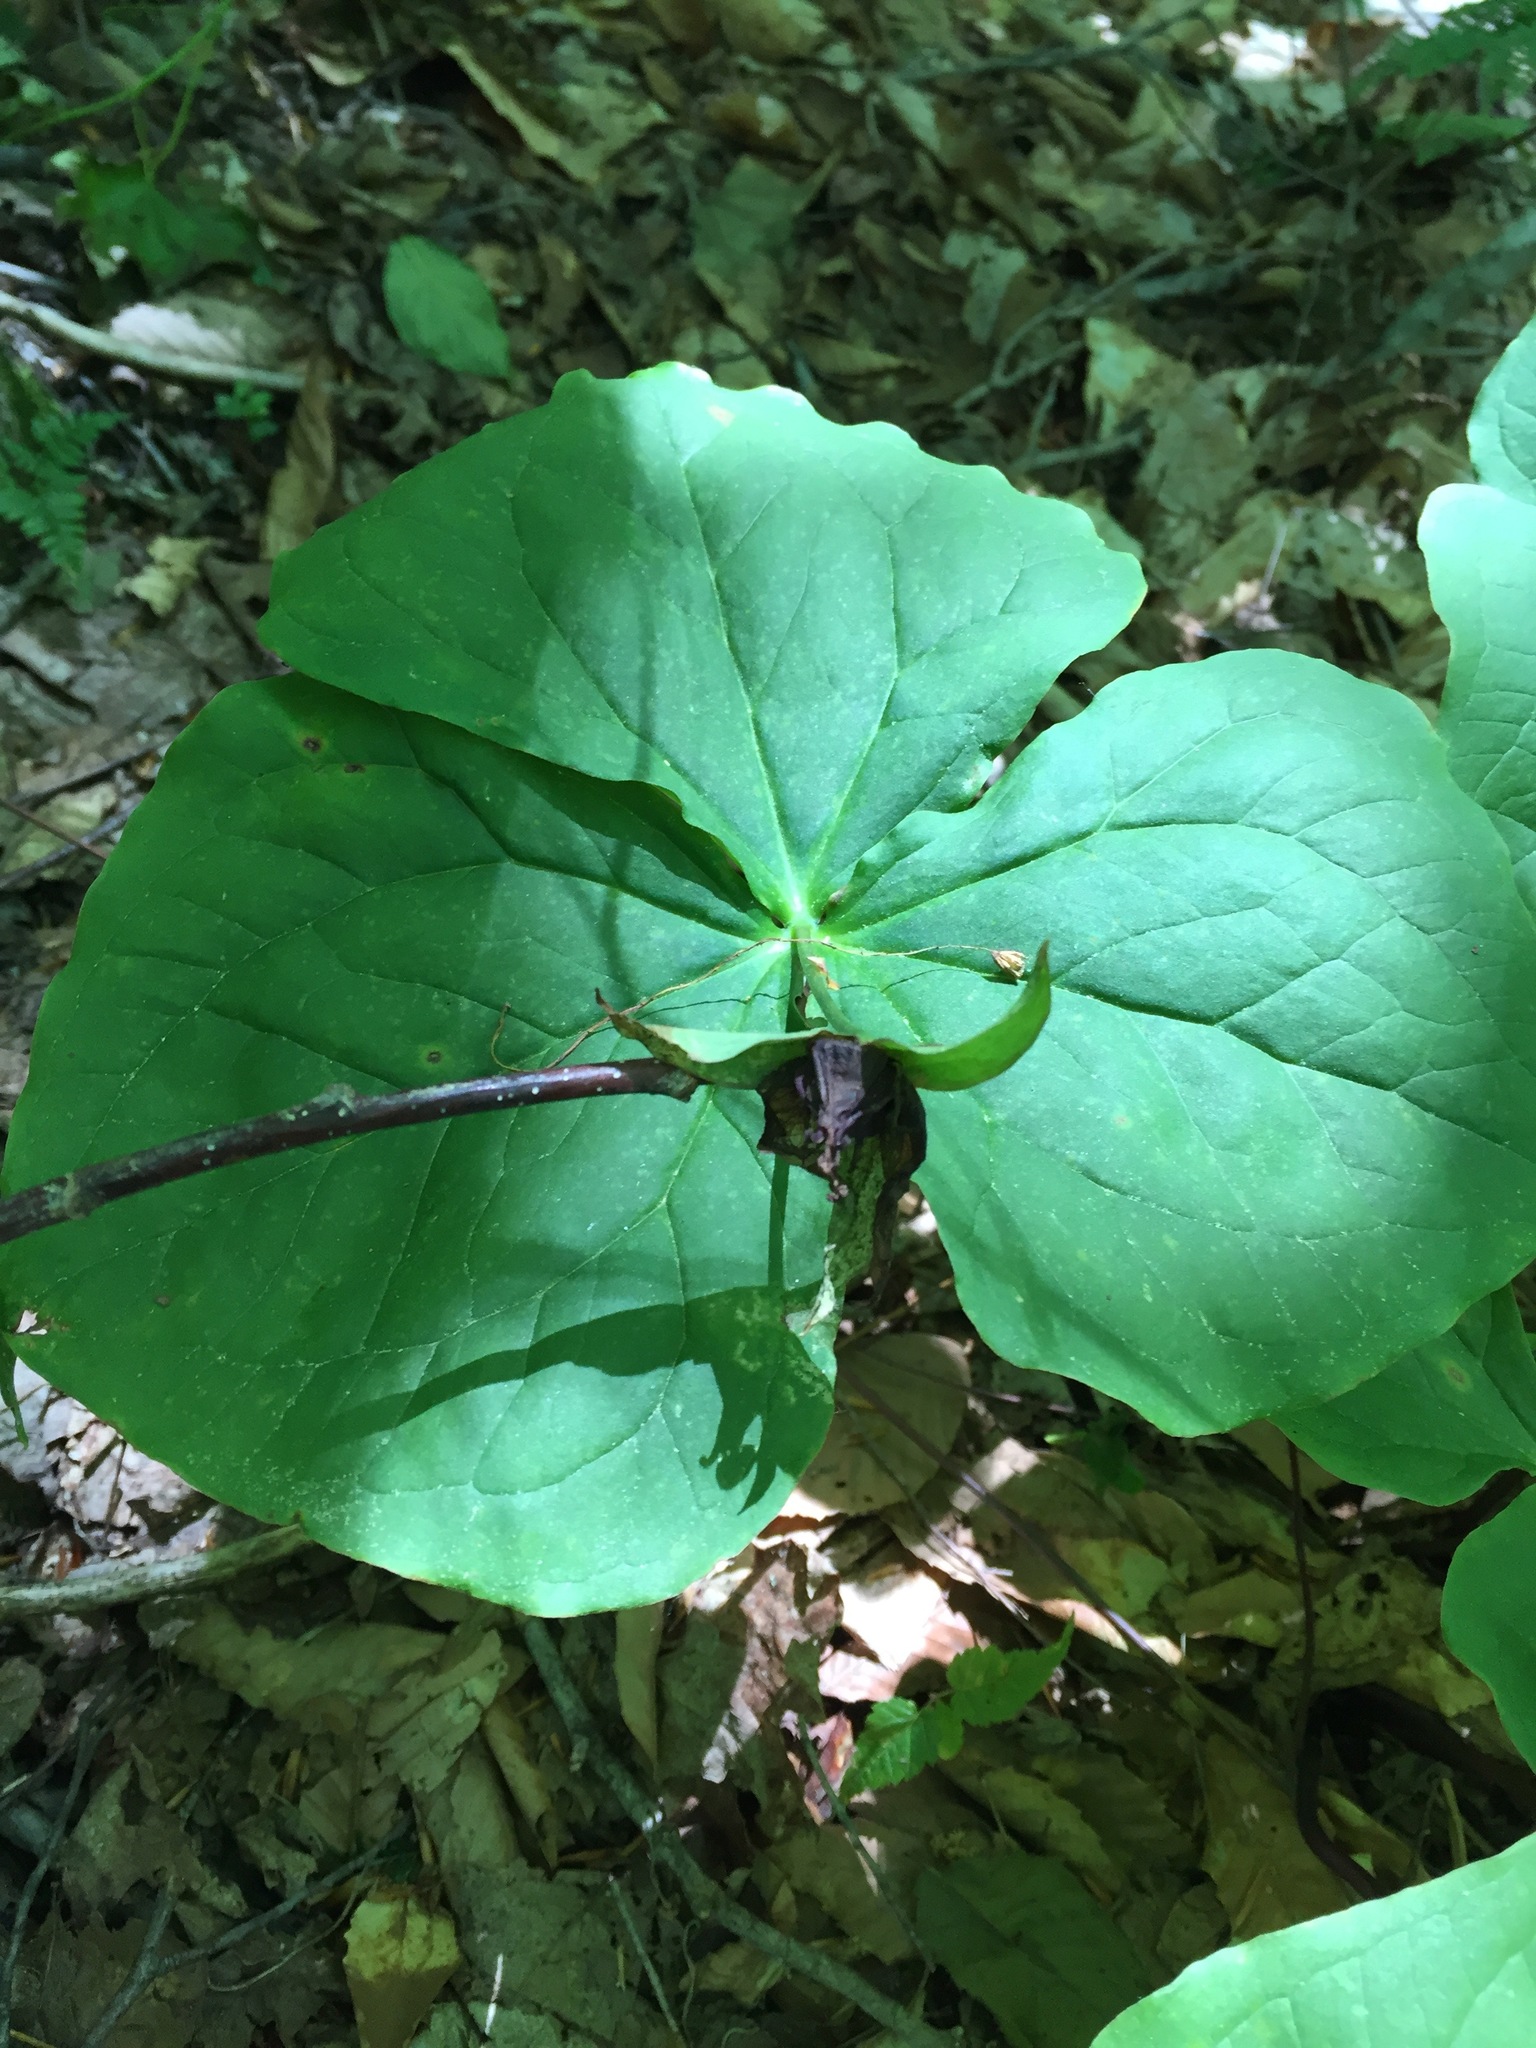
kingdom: Plantae
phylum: Tracheophyta
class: Liliopsida
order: Liliales
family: Melanthiaceae
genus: Trillium
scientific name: Trillium erectum
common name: Purple trillium
